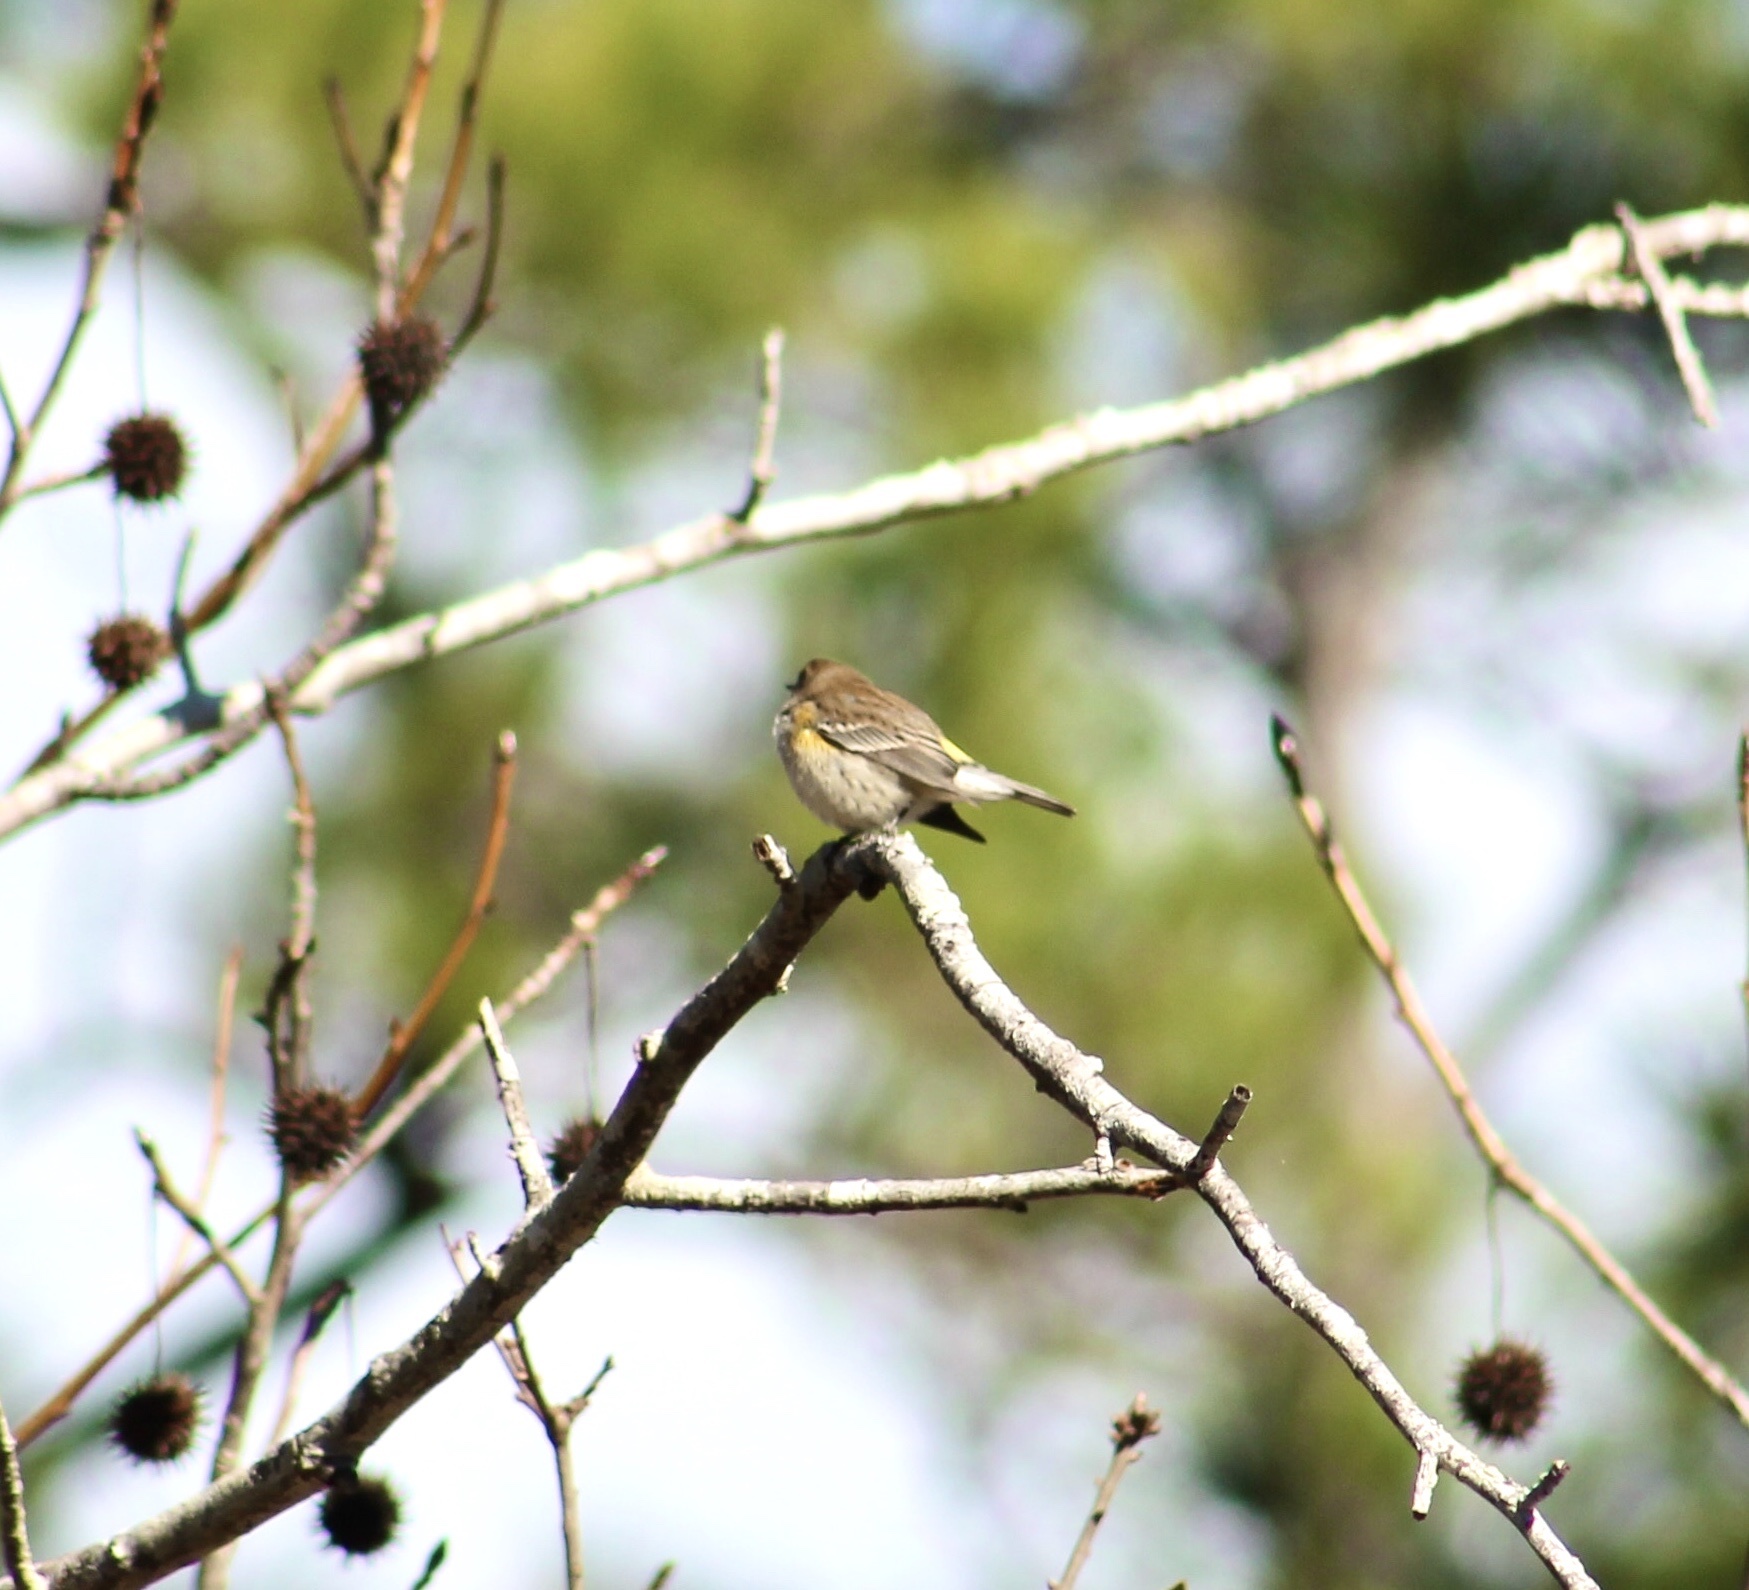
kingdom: Animalia
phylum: Chordata
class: Aves
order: Passeriformes
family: Parulidae
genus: Setophaga
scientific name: Setophaga coronata
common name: Myrtle warbler
